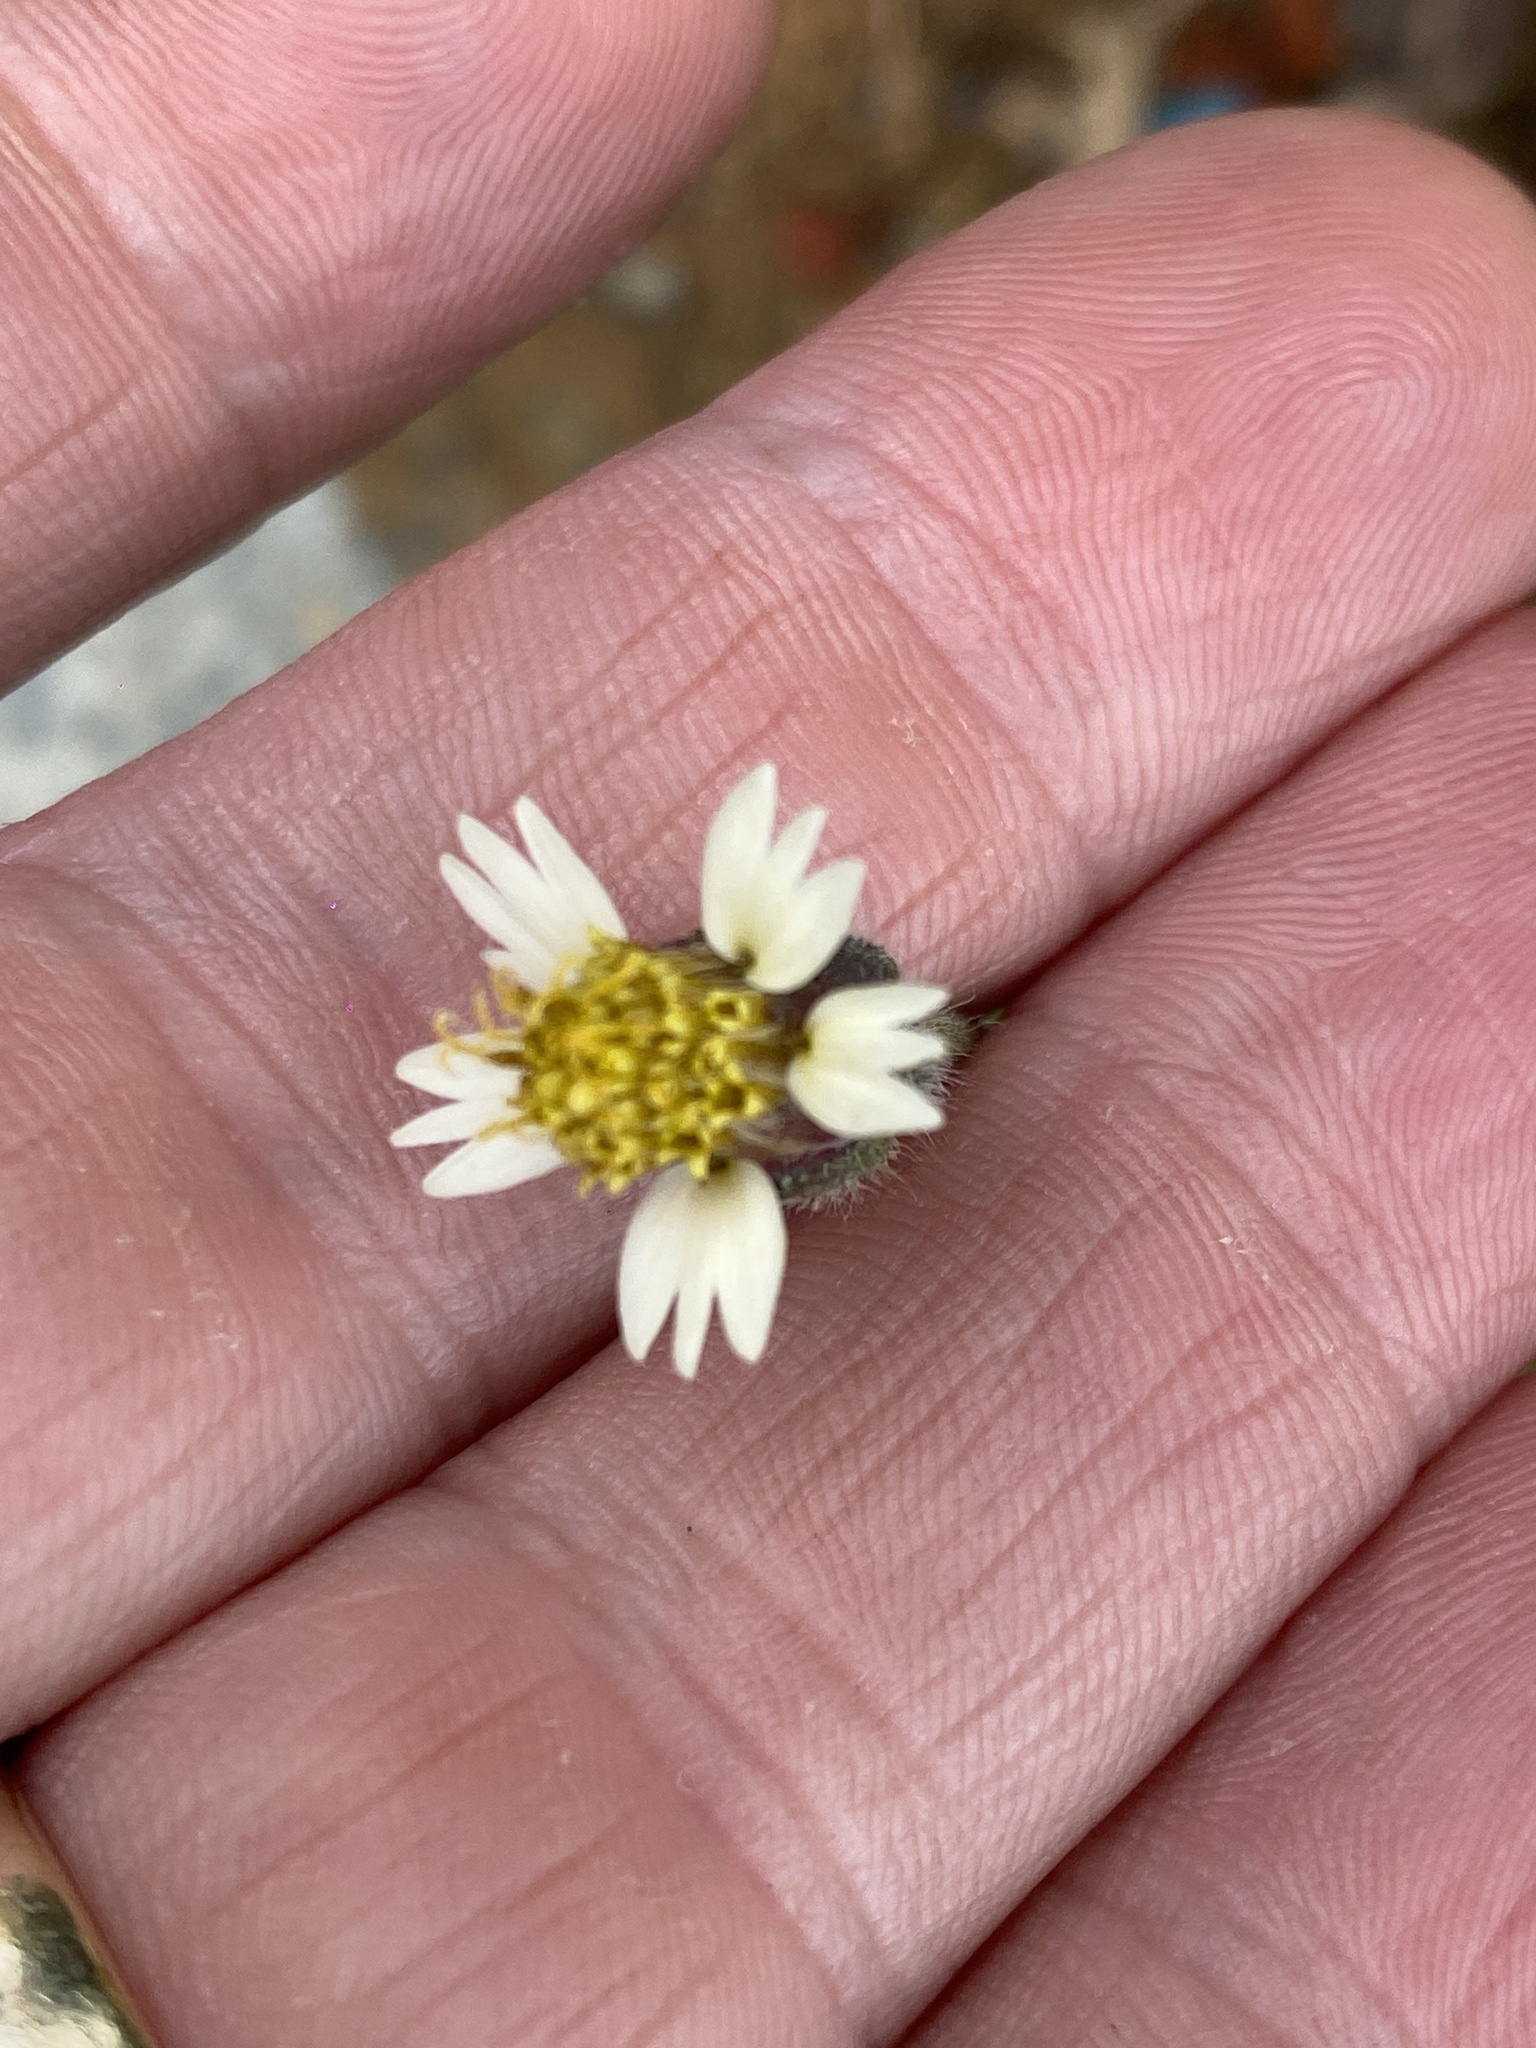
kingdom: Plantae
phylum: Tracheophyta
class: Magnoliopsida
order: Asterales
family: Asteraceae
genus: Tridax
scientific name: Tridax procumbens
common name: Coatbuttons
